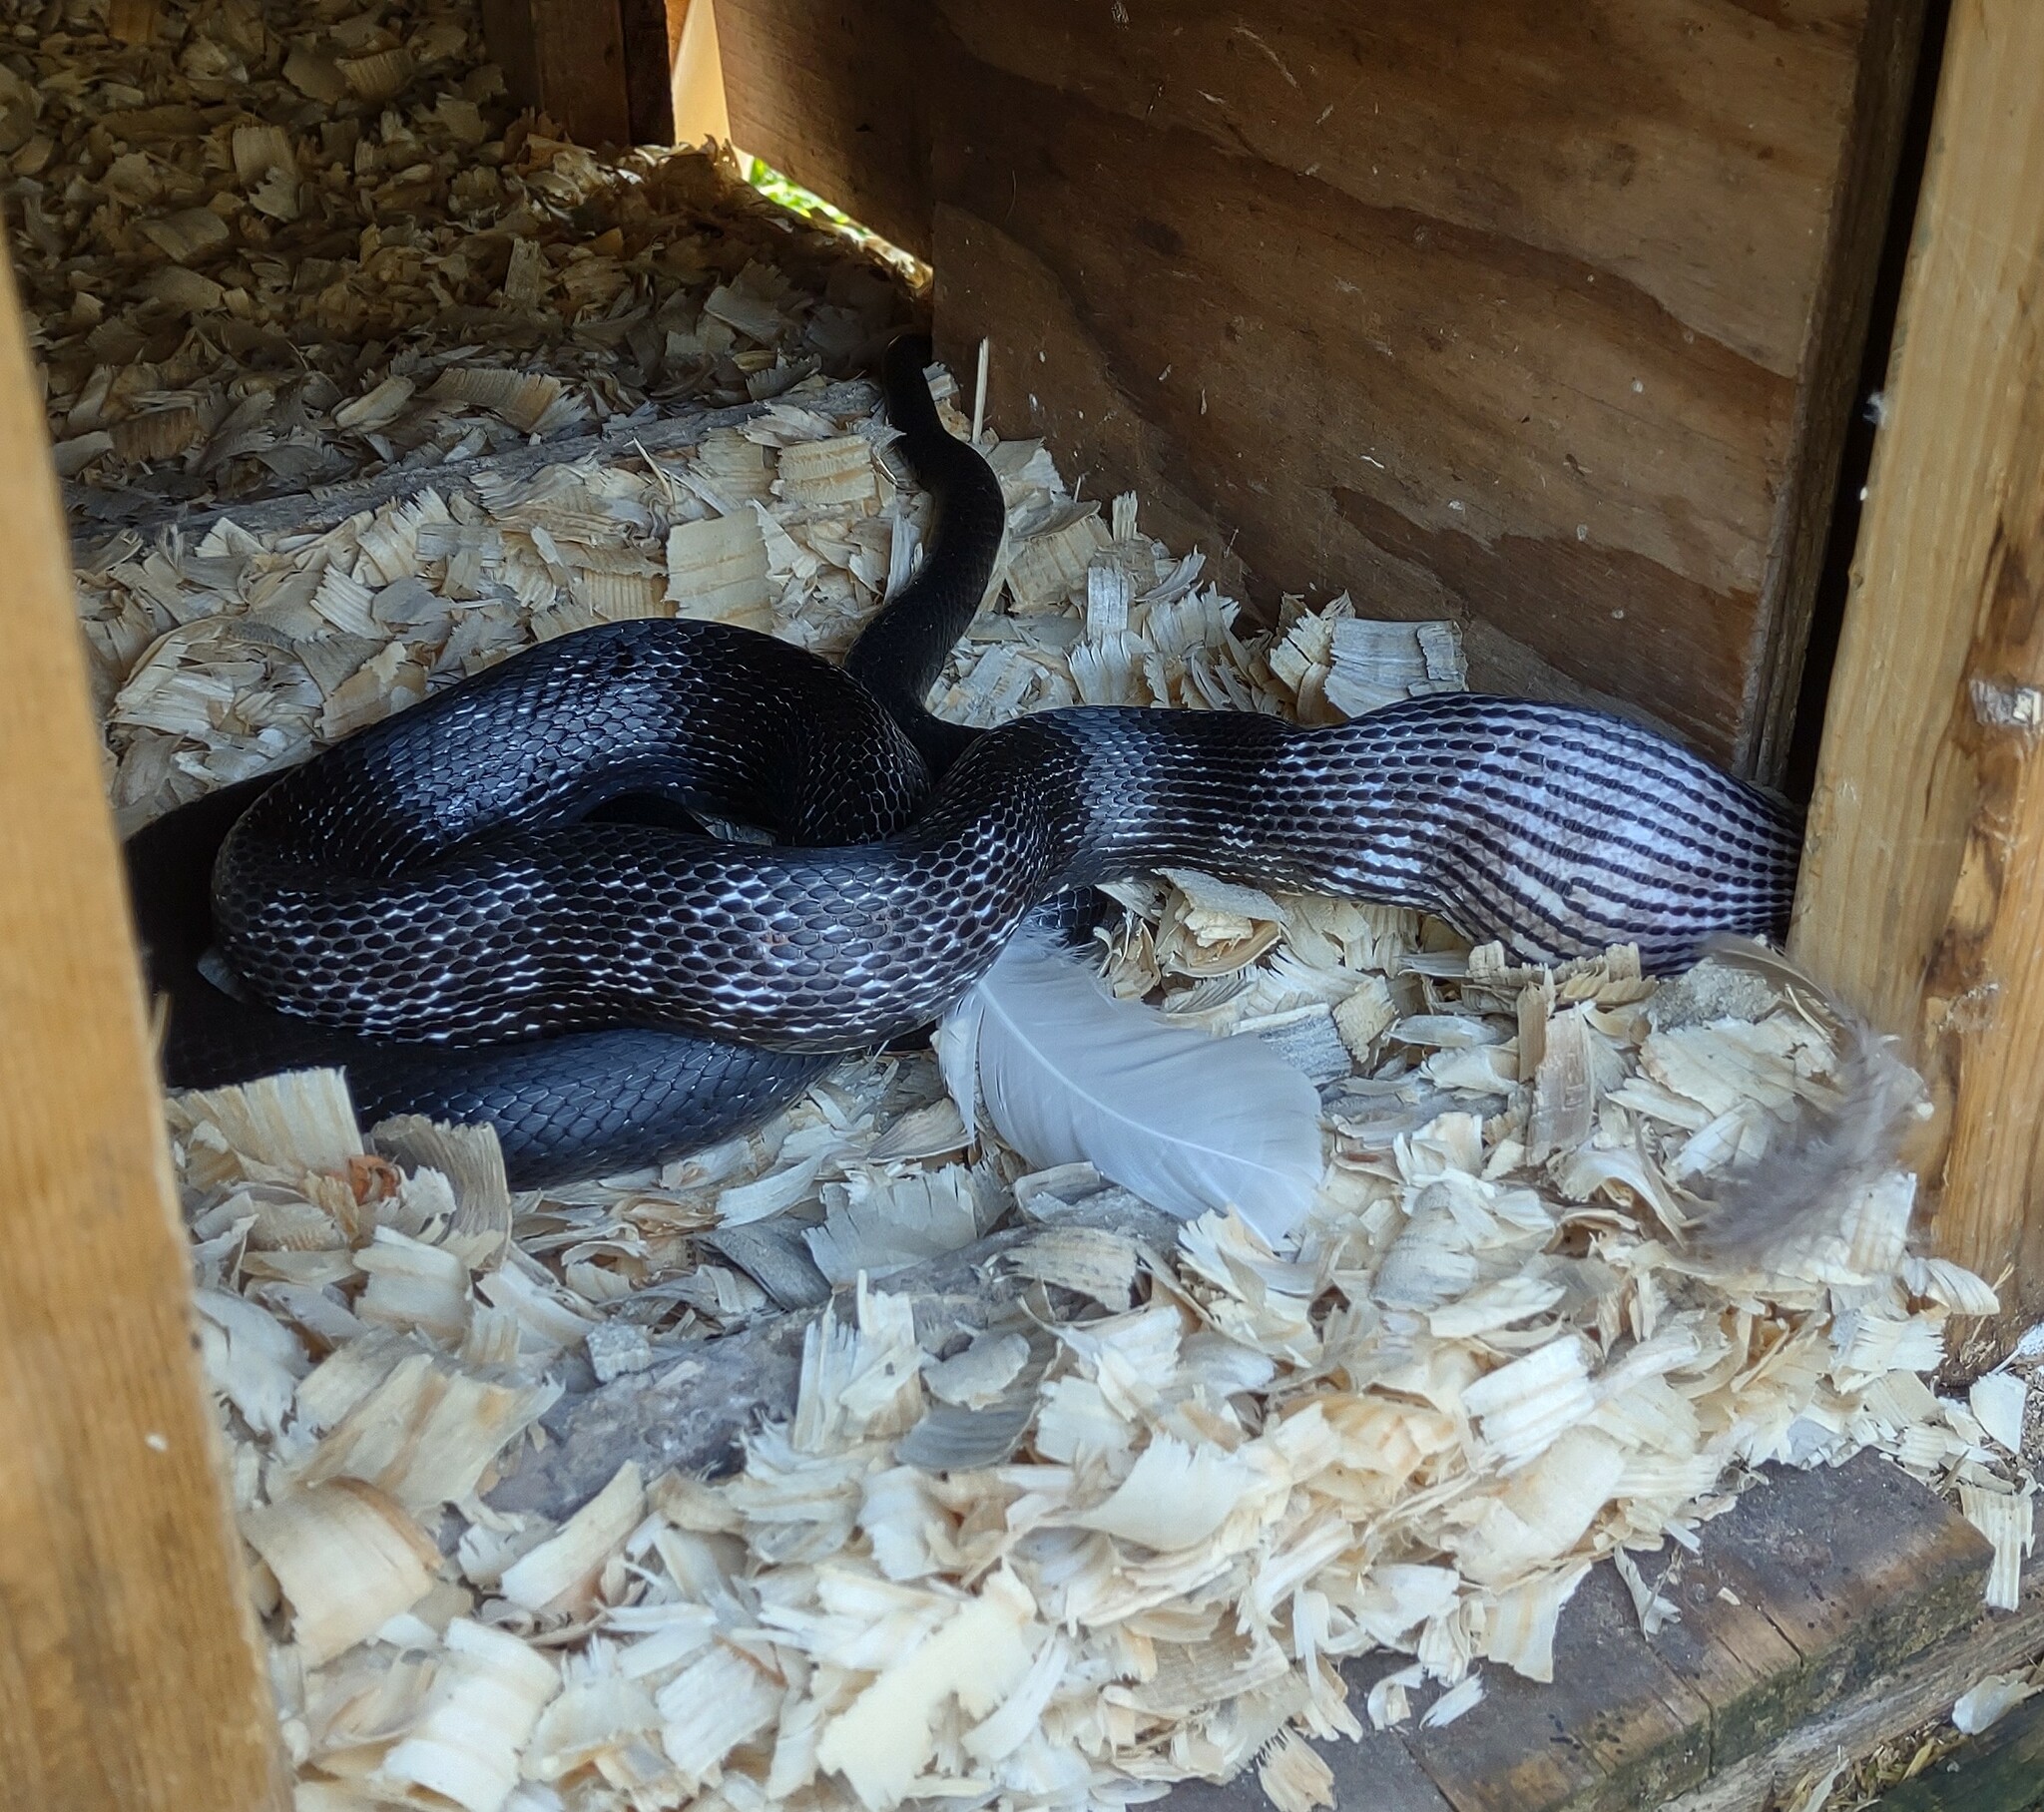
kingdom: Animalia
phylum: Chordata
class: Squamata
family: Colubridae
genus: Pantherophis
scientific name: Pantherophis
